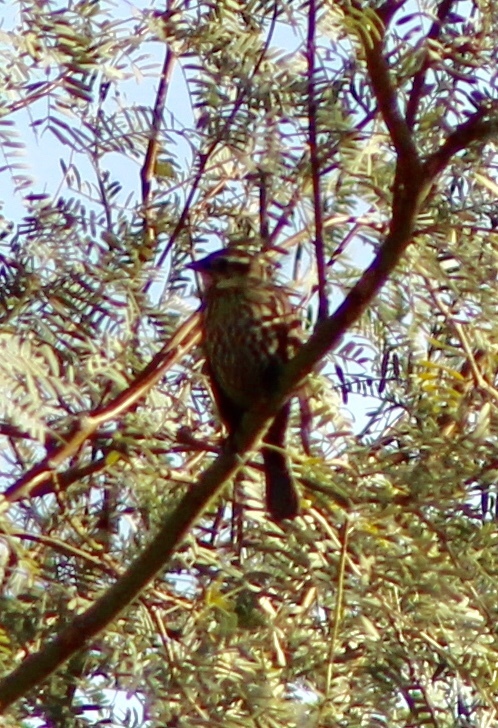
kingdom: Animalia
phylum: Chordata
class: Aves
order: Passeriformes
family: Icteridae
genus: Agelaius
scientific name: Agelaius phoeniceus
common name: Red-winged blackbird
